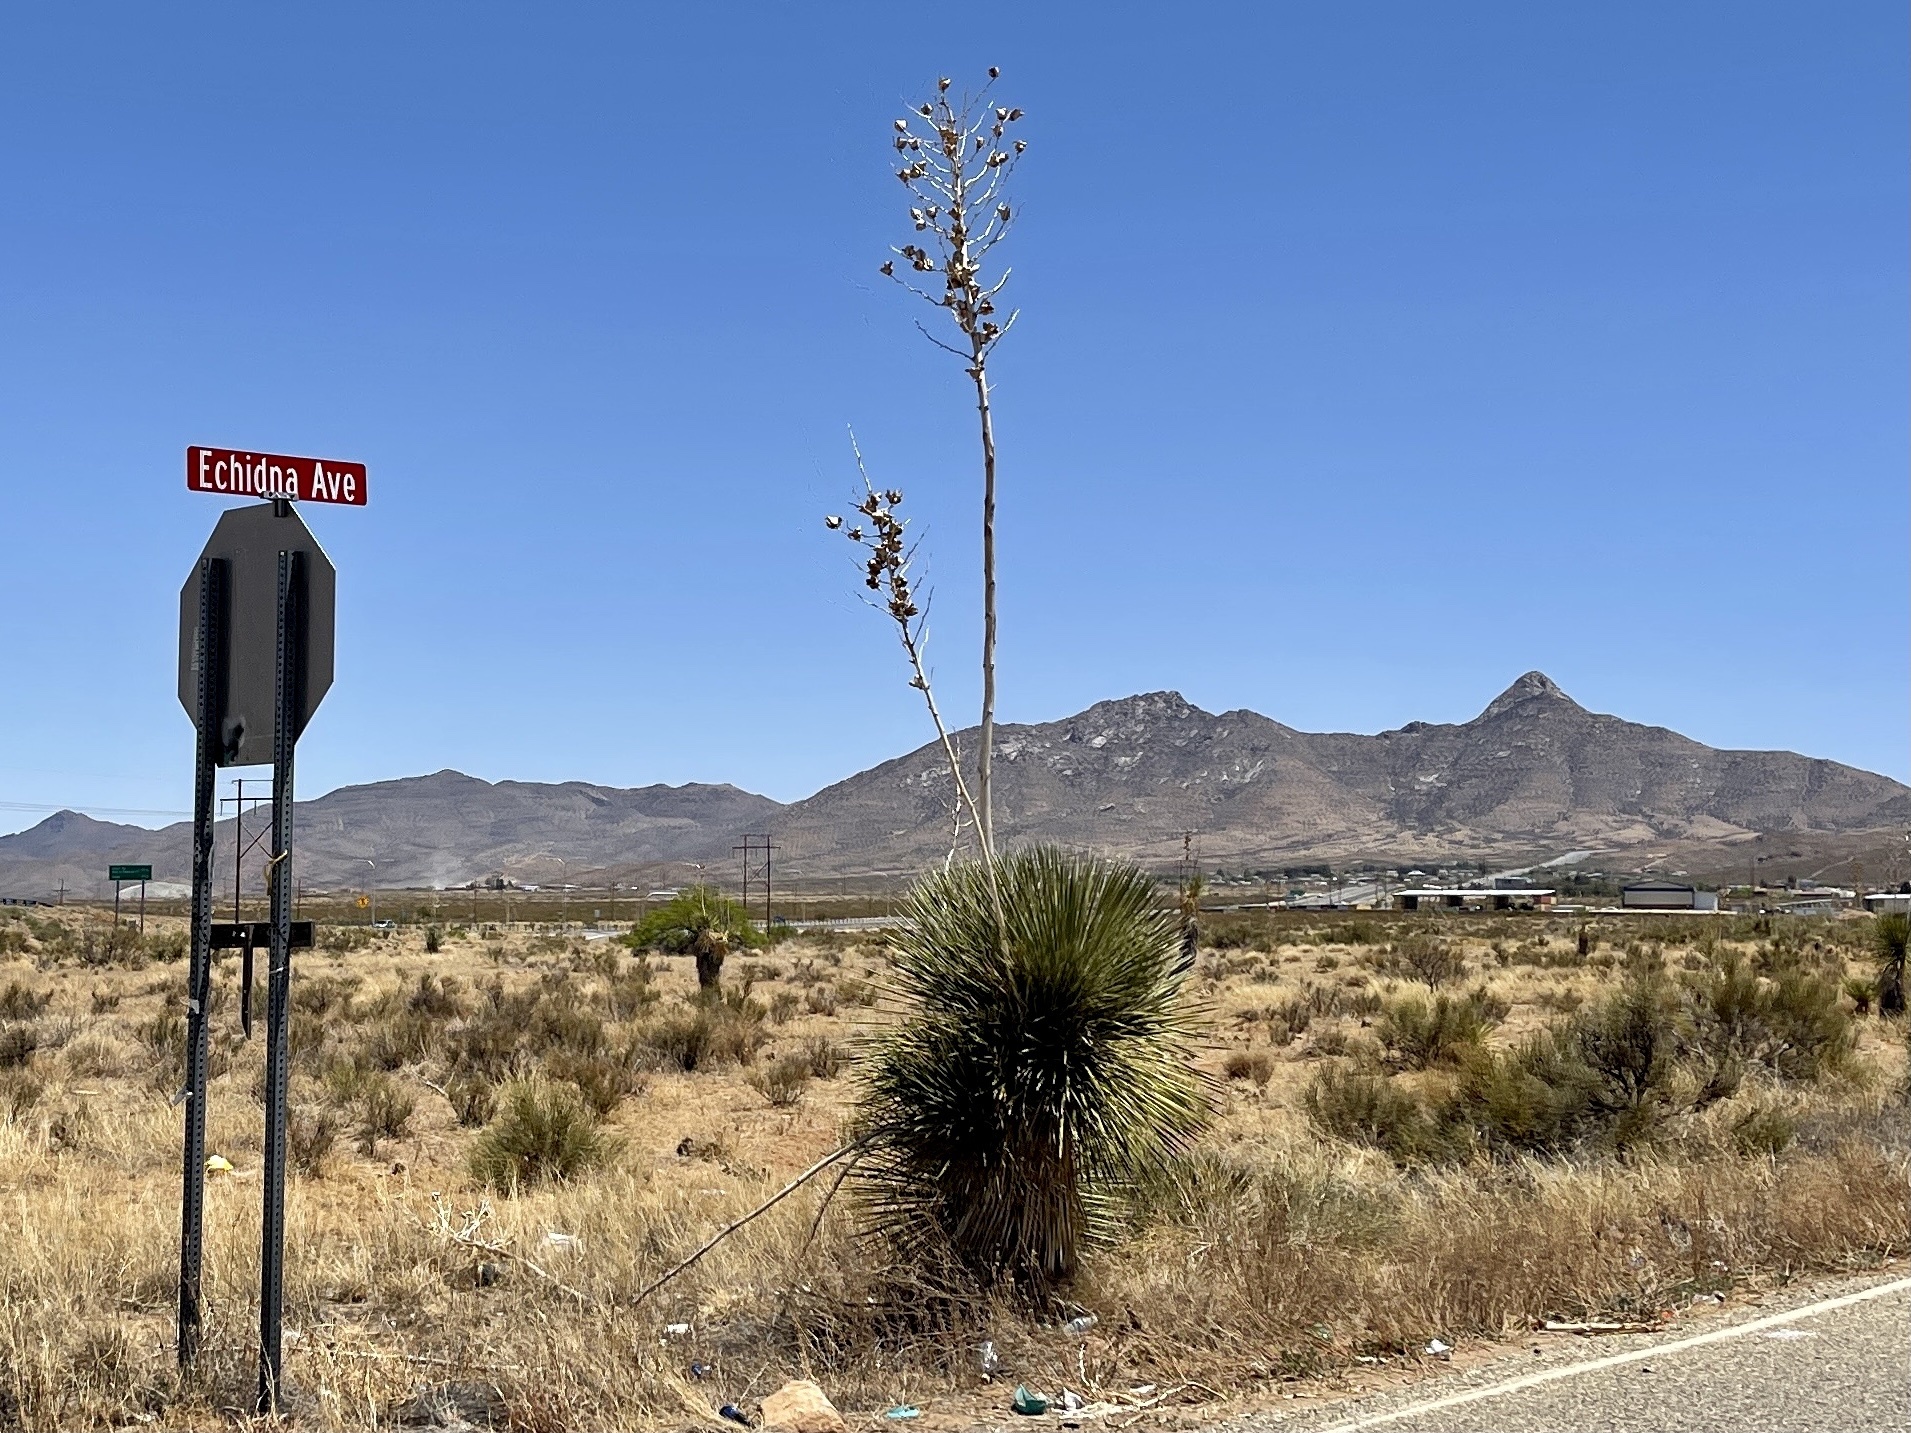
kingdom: Plantae
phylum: Tracheophyta
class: Liliopsida
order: Asparagales
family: Asparagaceae
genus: Yucca
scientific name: Yucca elata
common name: Palmella
